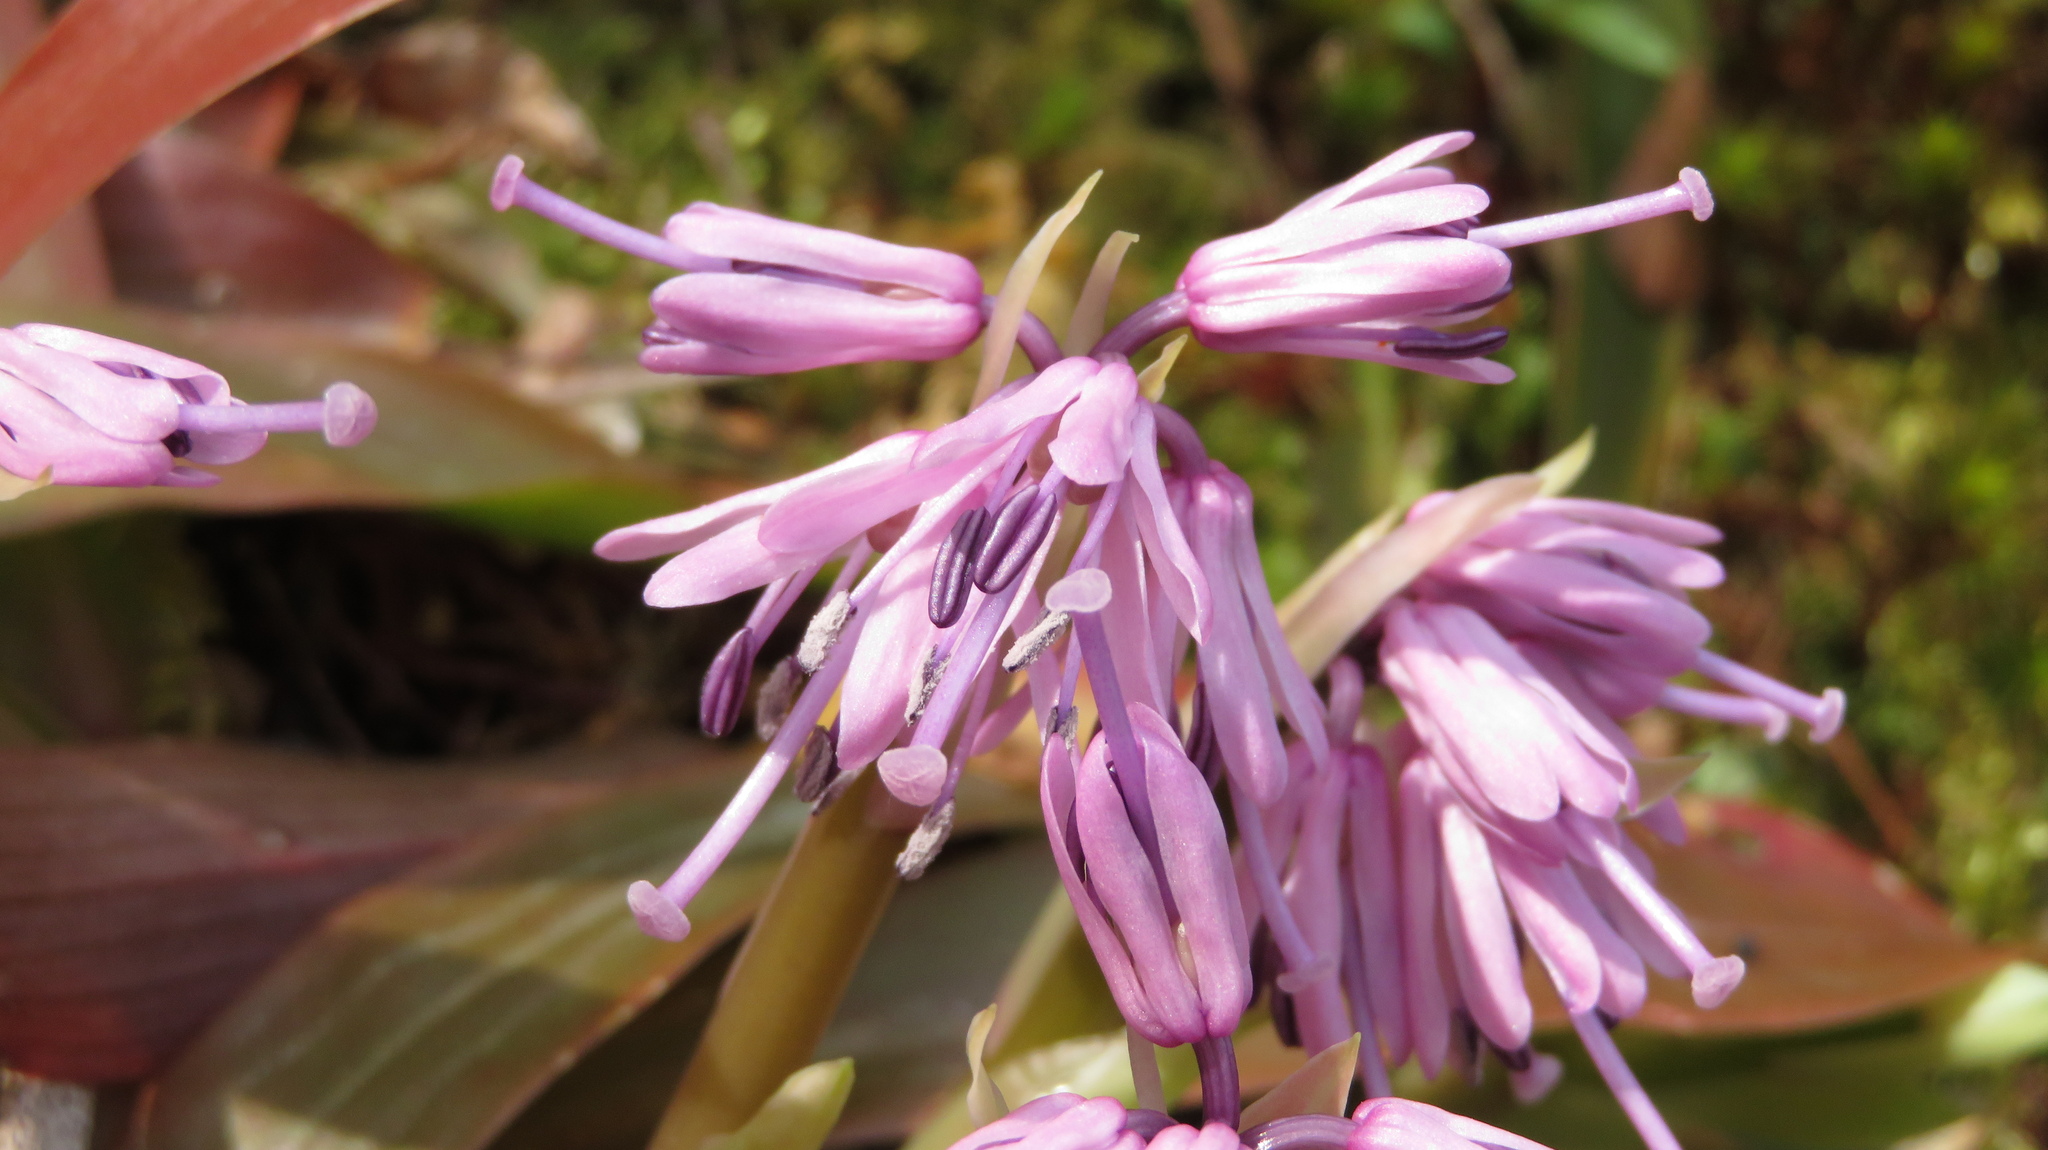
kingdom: Plantae
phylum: Tracheophyta
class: Liliopsida
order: Liliales
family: Melanthiaceae
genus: Helonias
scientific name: Helonias orientalis
